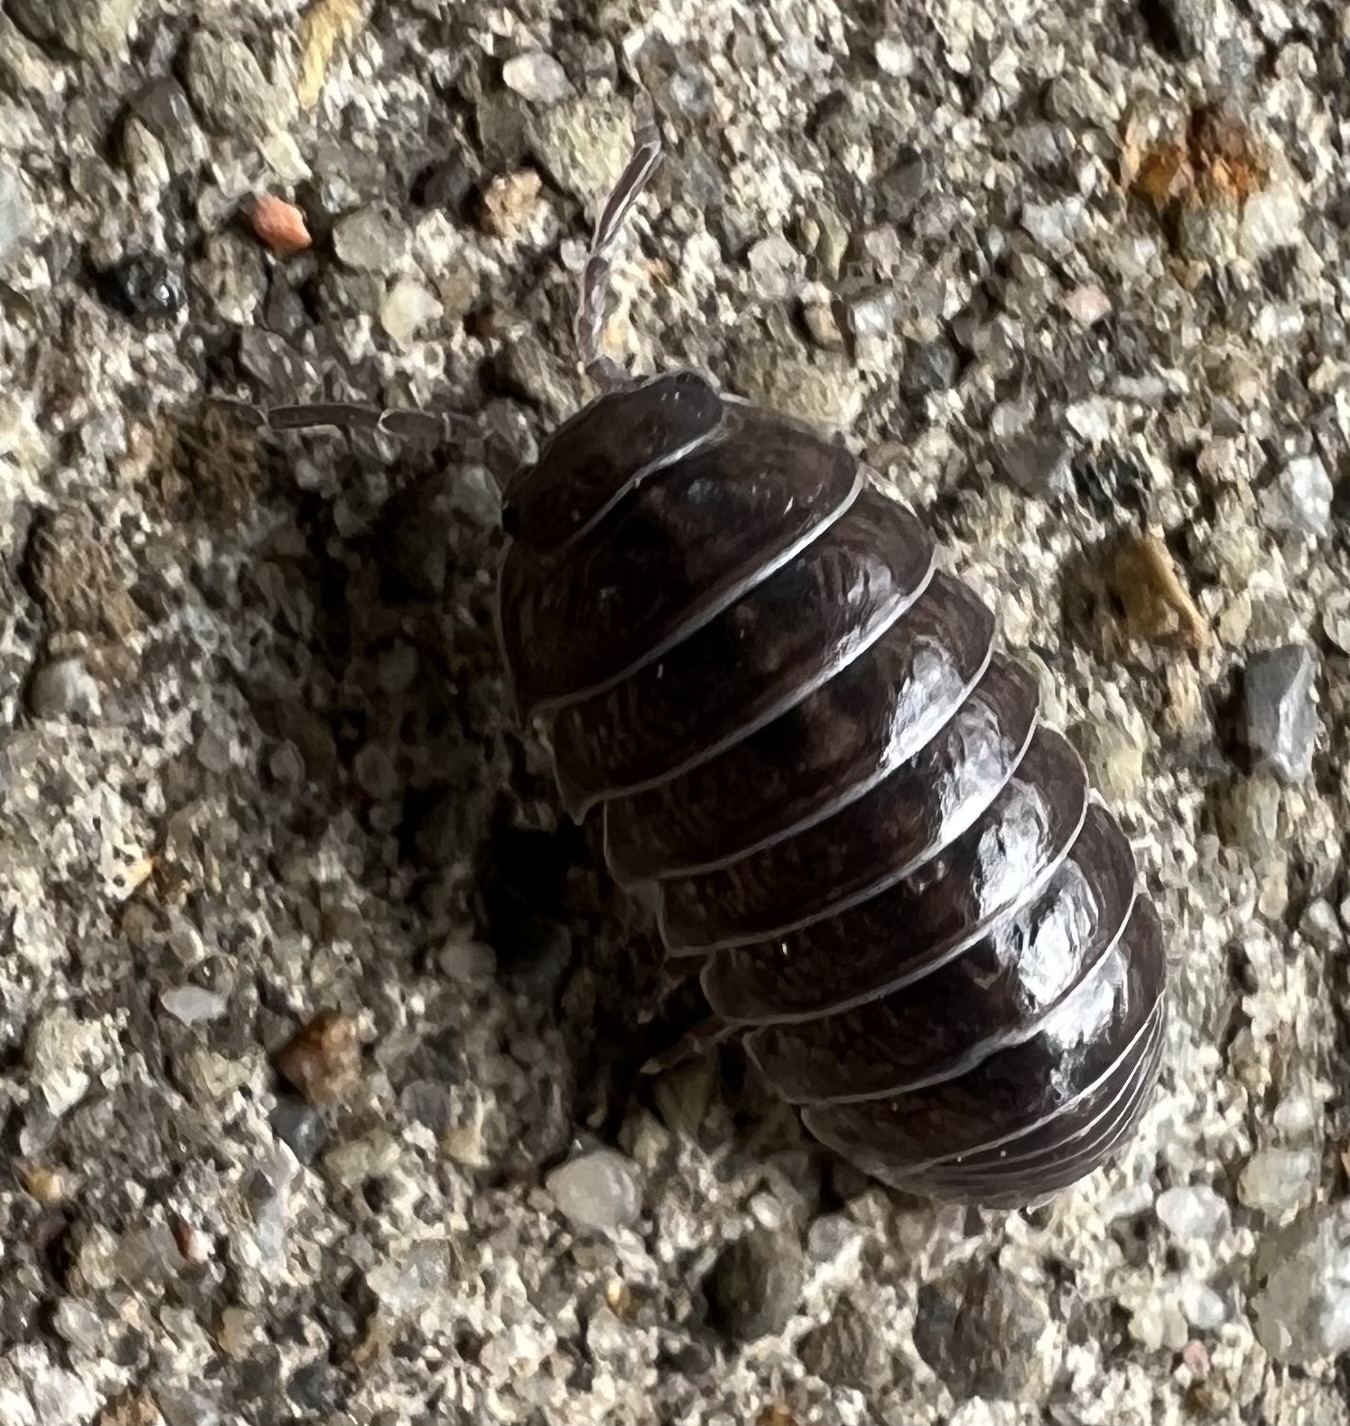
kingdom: Animalia
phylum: Arthropoda
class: Malacostraca
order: Isopoda
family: Armadillidiidae
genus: Armadillidium
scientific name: Armadillidium vulgare
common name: Common pill woodlouse
